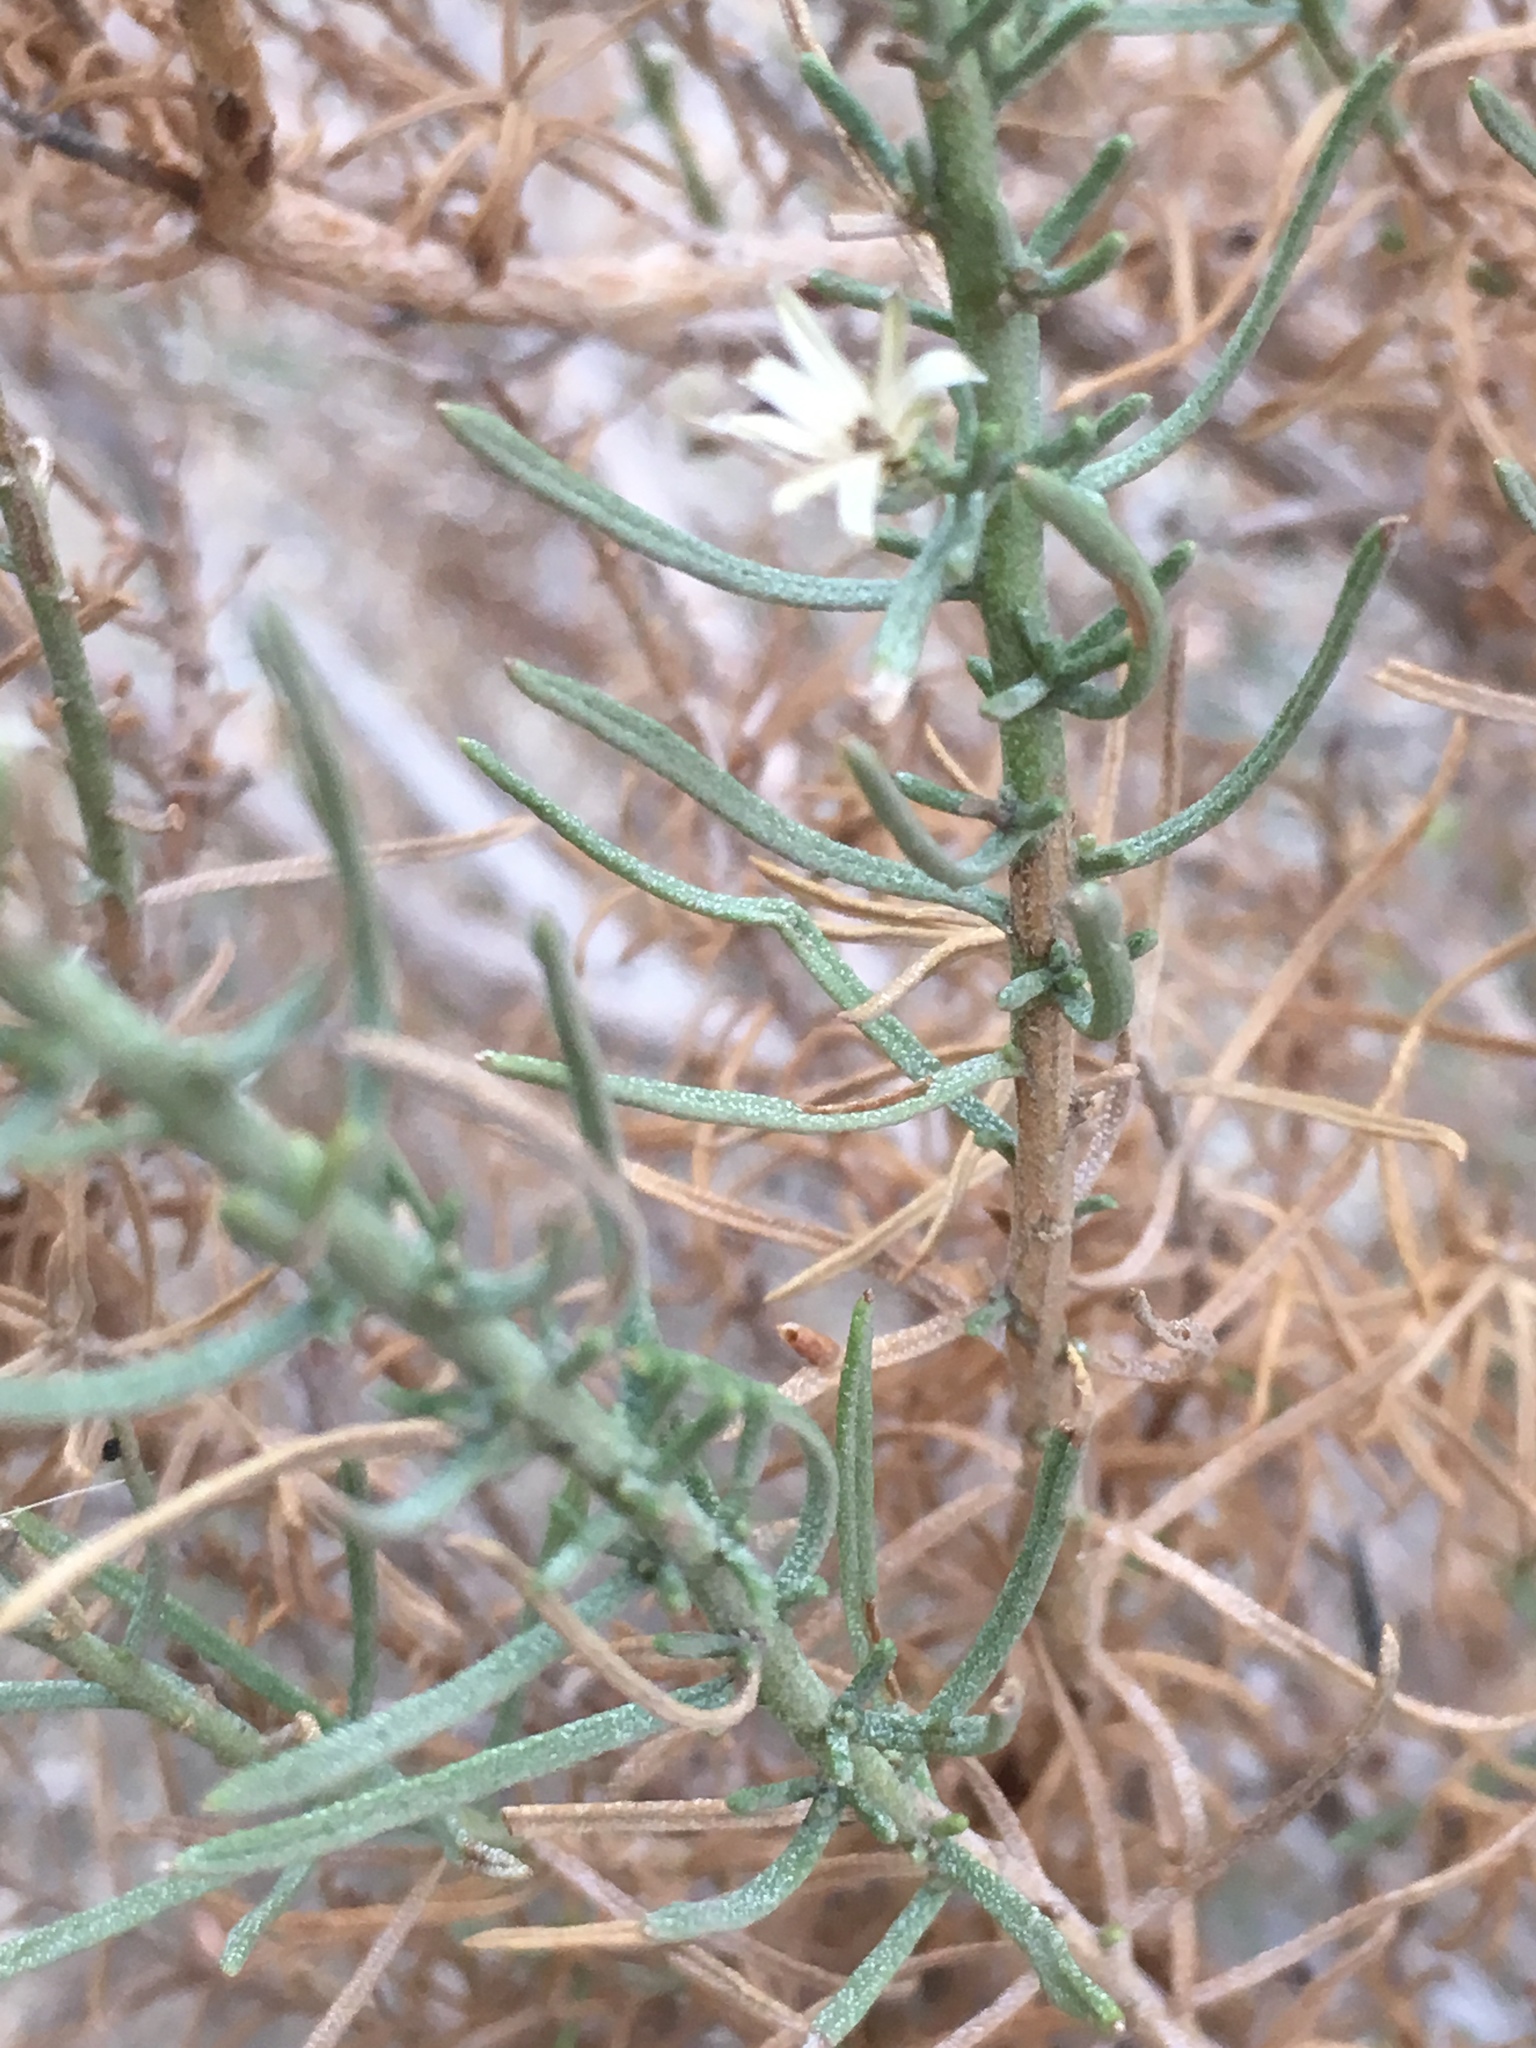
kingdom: Plantae
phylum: Tracheophyta
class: Magnoliopsida
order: Asterales
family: Asteraceae
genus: Ericameria
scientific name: Ericameria brachylepis
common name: Boundary goldenbush
